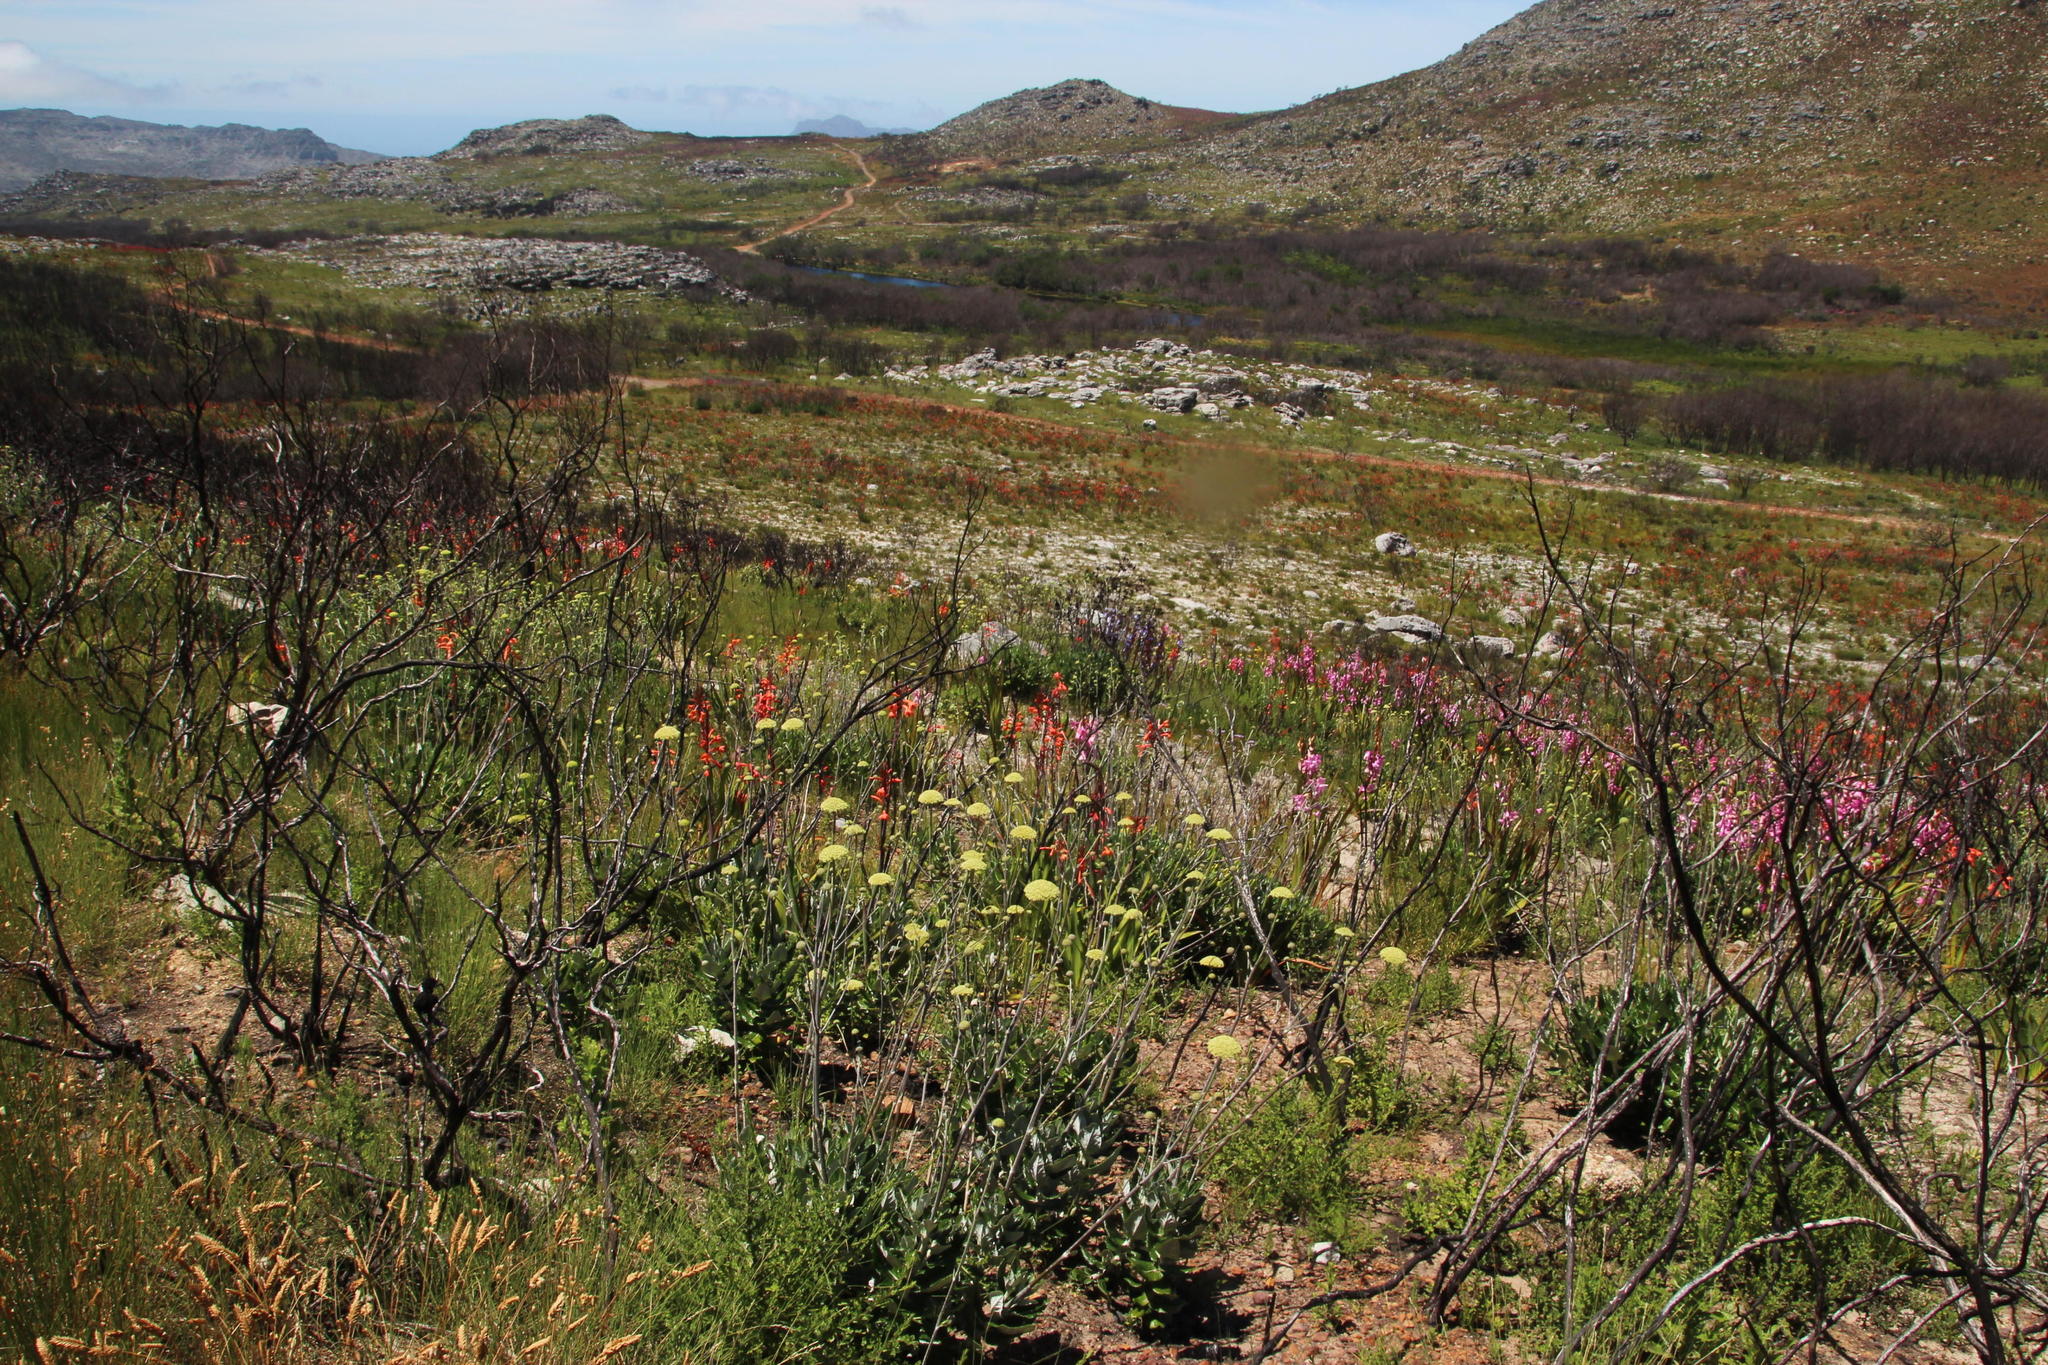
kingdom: Plantae
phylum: Tracheophyta
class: Magnoliopsida
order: Apiales
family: Apiaceae
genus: Hermas
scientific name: Hermas villosa
